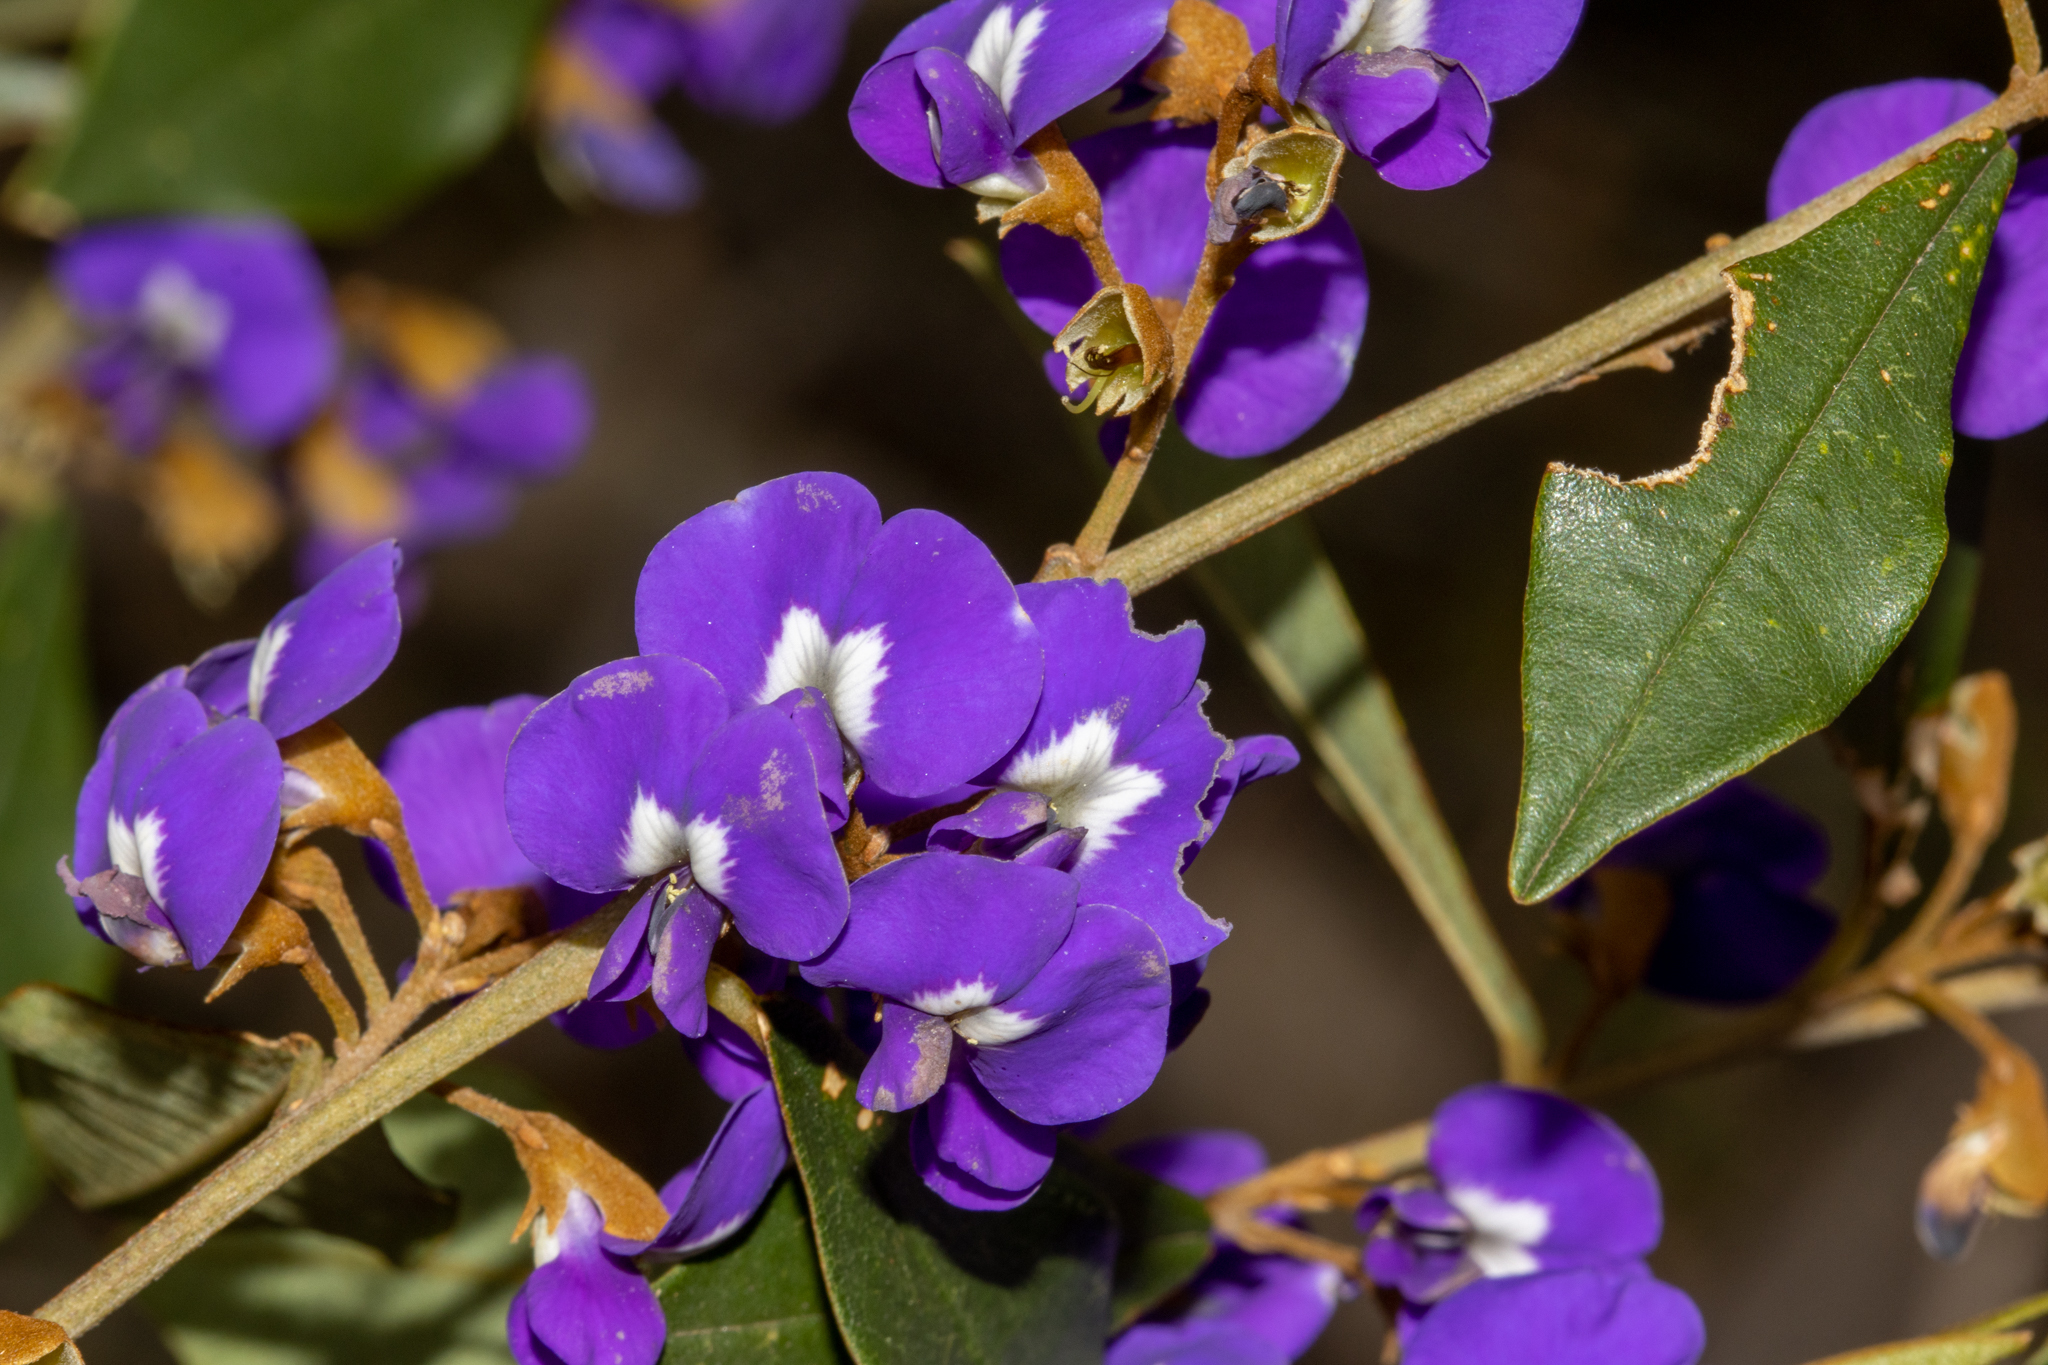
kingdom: Plantae
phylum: Tracheophyta
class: Magnoliopsida
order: Fabales
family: Fabaceae
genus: Hovea
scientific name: Hovea elliptica
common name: Tree hovea
